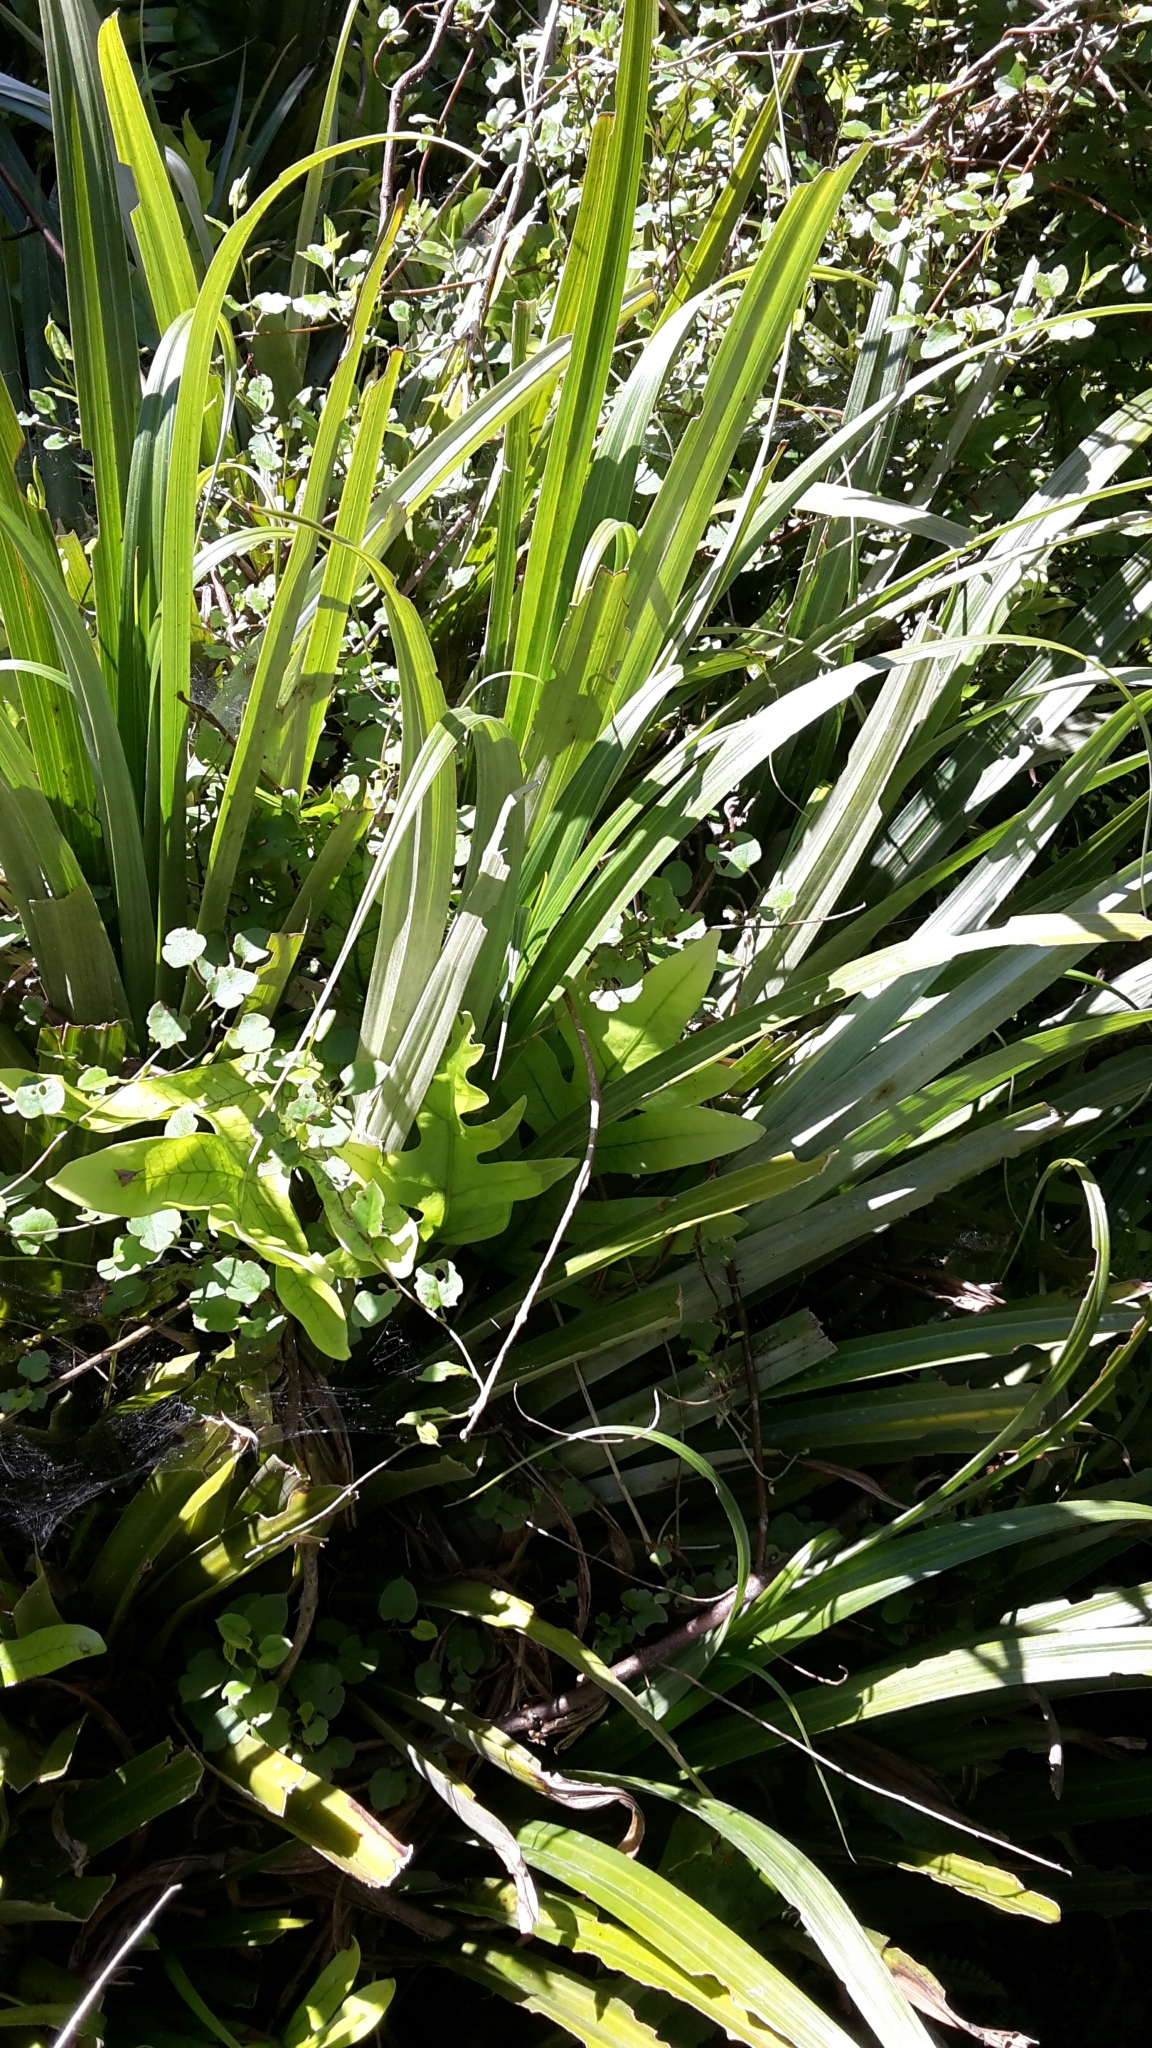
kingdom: Plantae
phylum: Tracheophyta
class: Liliopsida
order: Asparagales
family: Asteliaceae
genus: Astelia
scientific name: Astelia hastata
